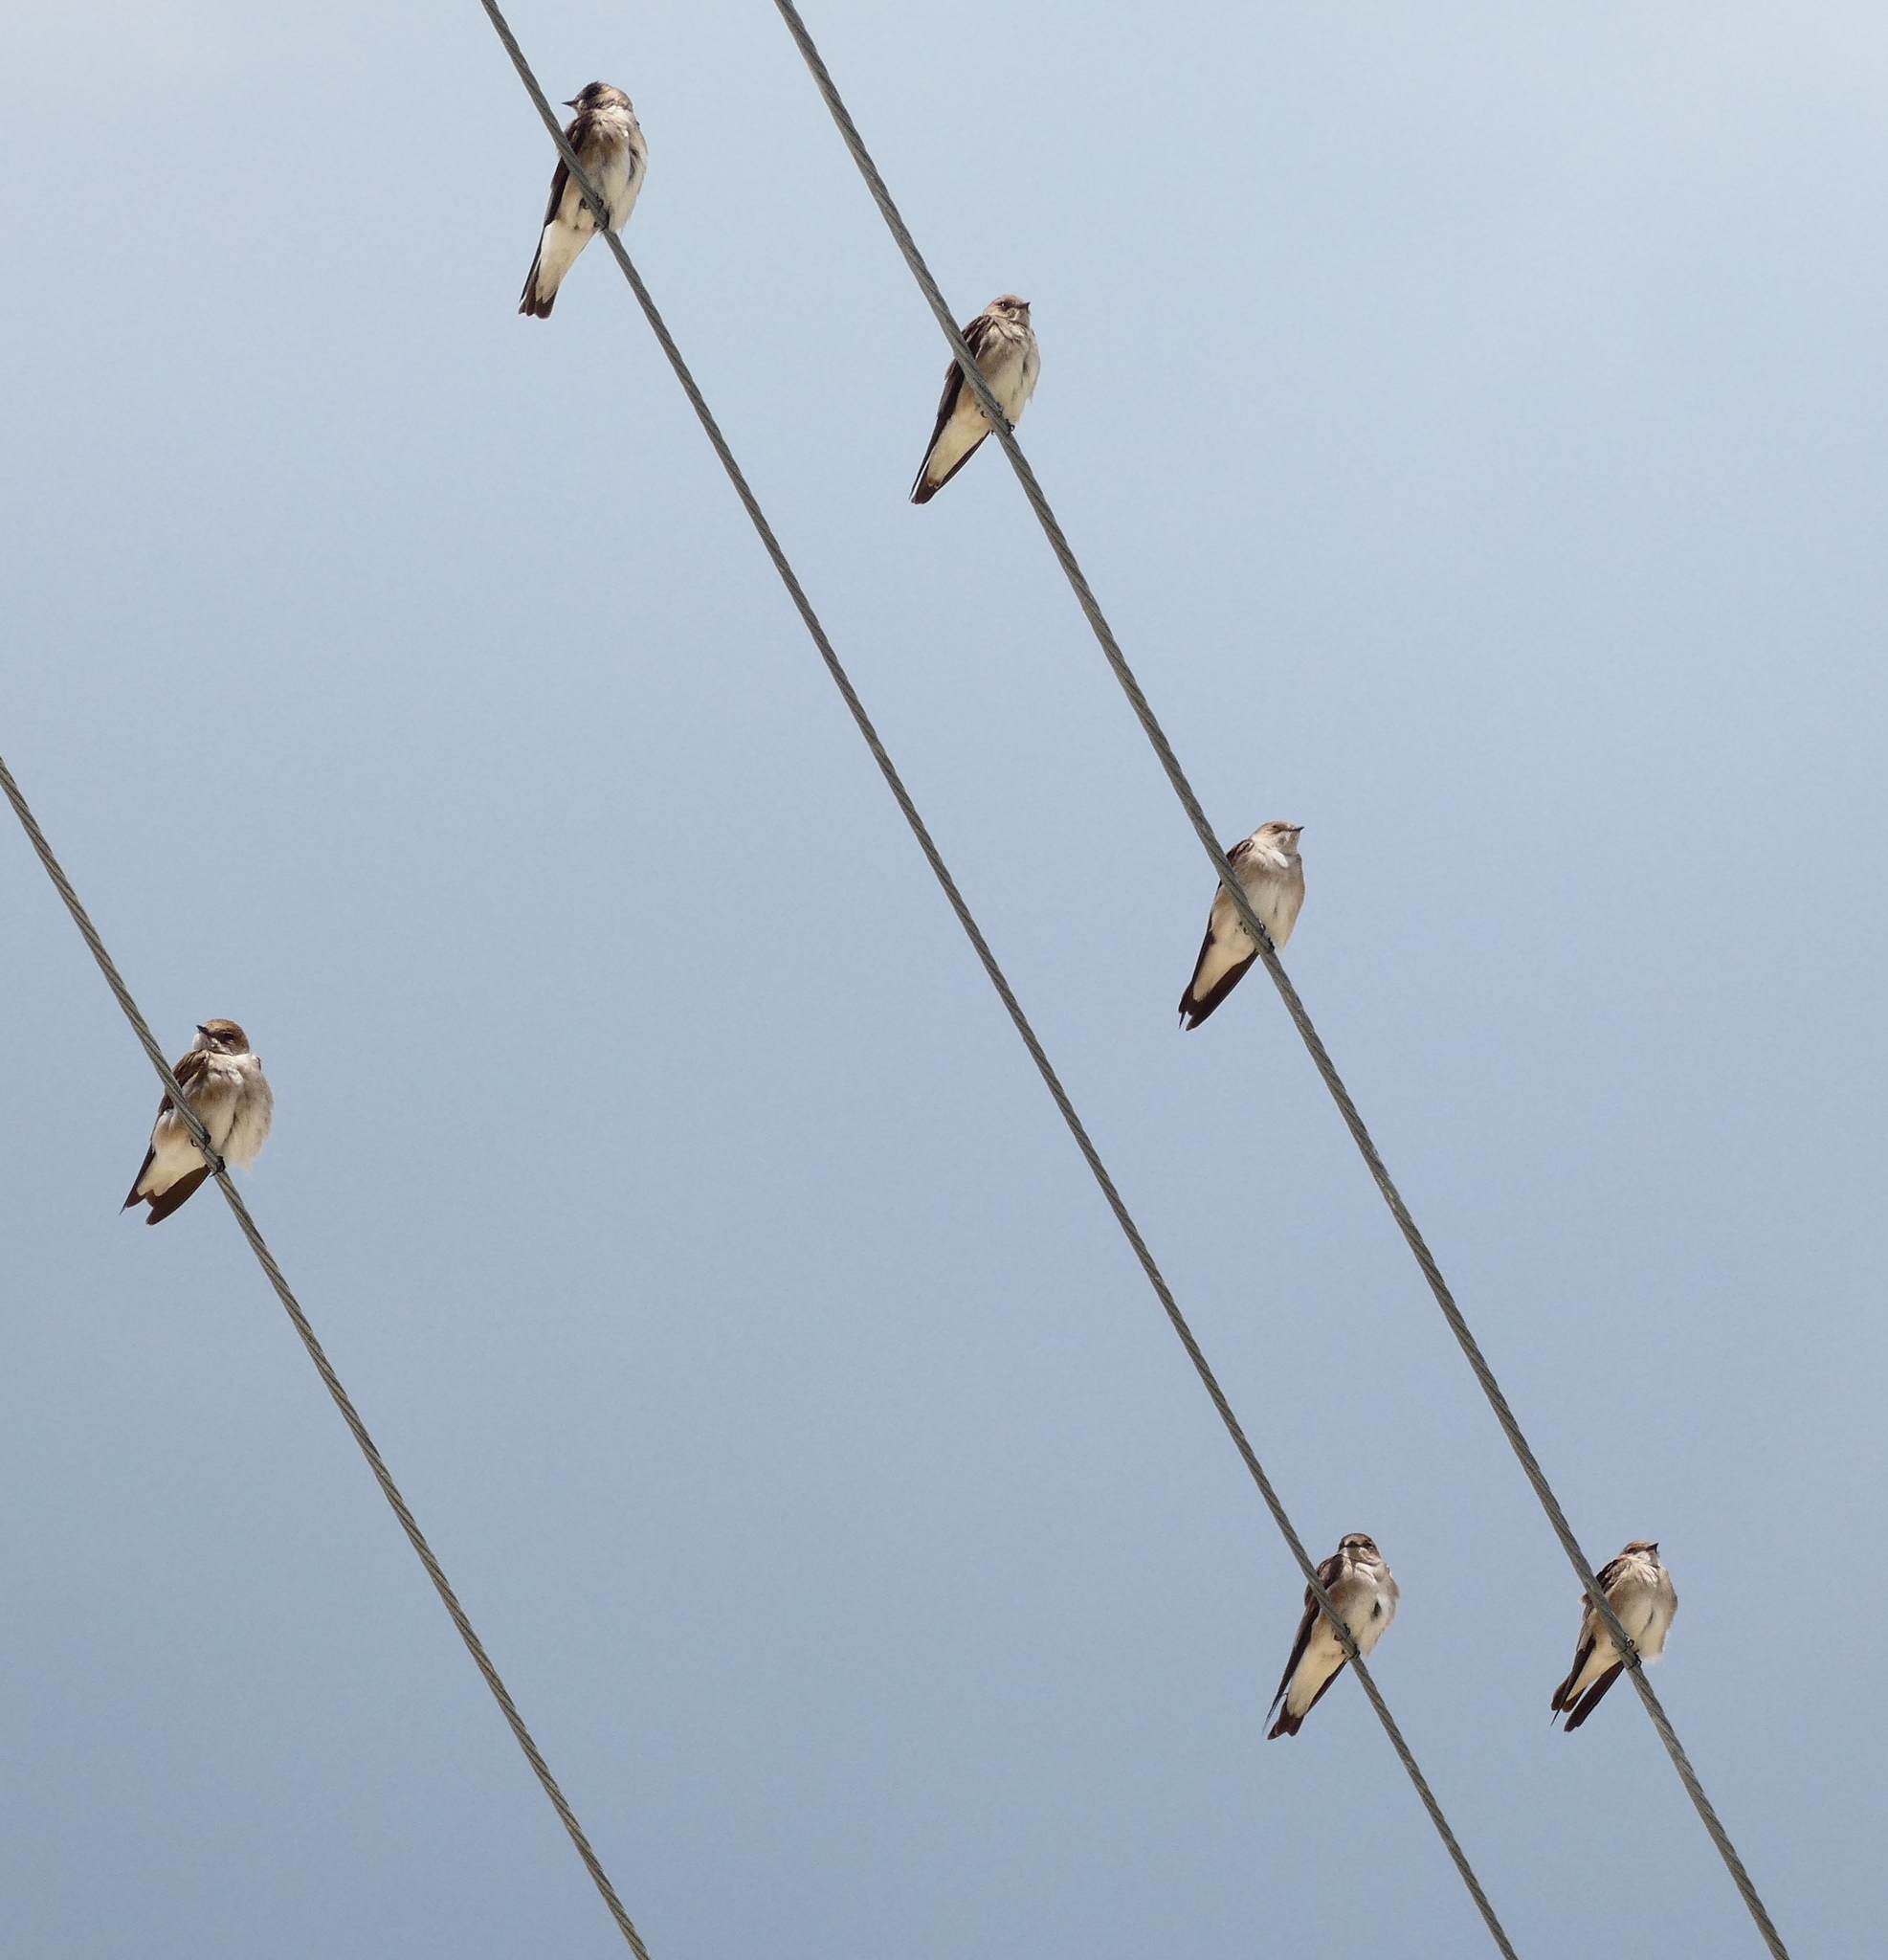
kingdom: Animalia
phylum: Chordata
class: Aves
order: Passeriformes
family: Hirundinidae
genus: Stelgidopteryx
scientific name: Stelgidopteryx serripennis
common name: Northern rough-winged swallow
